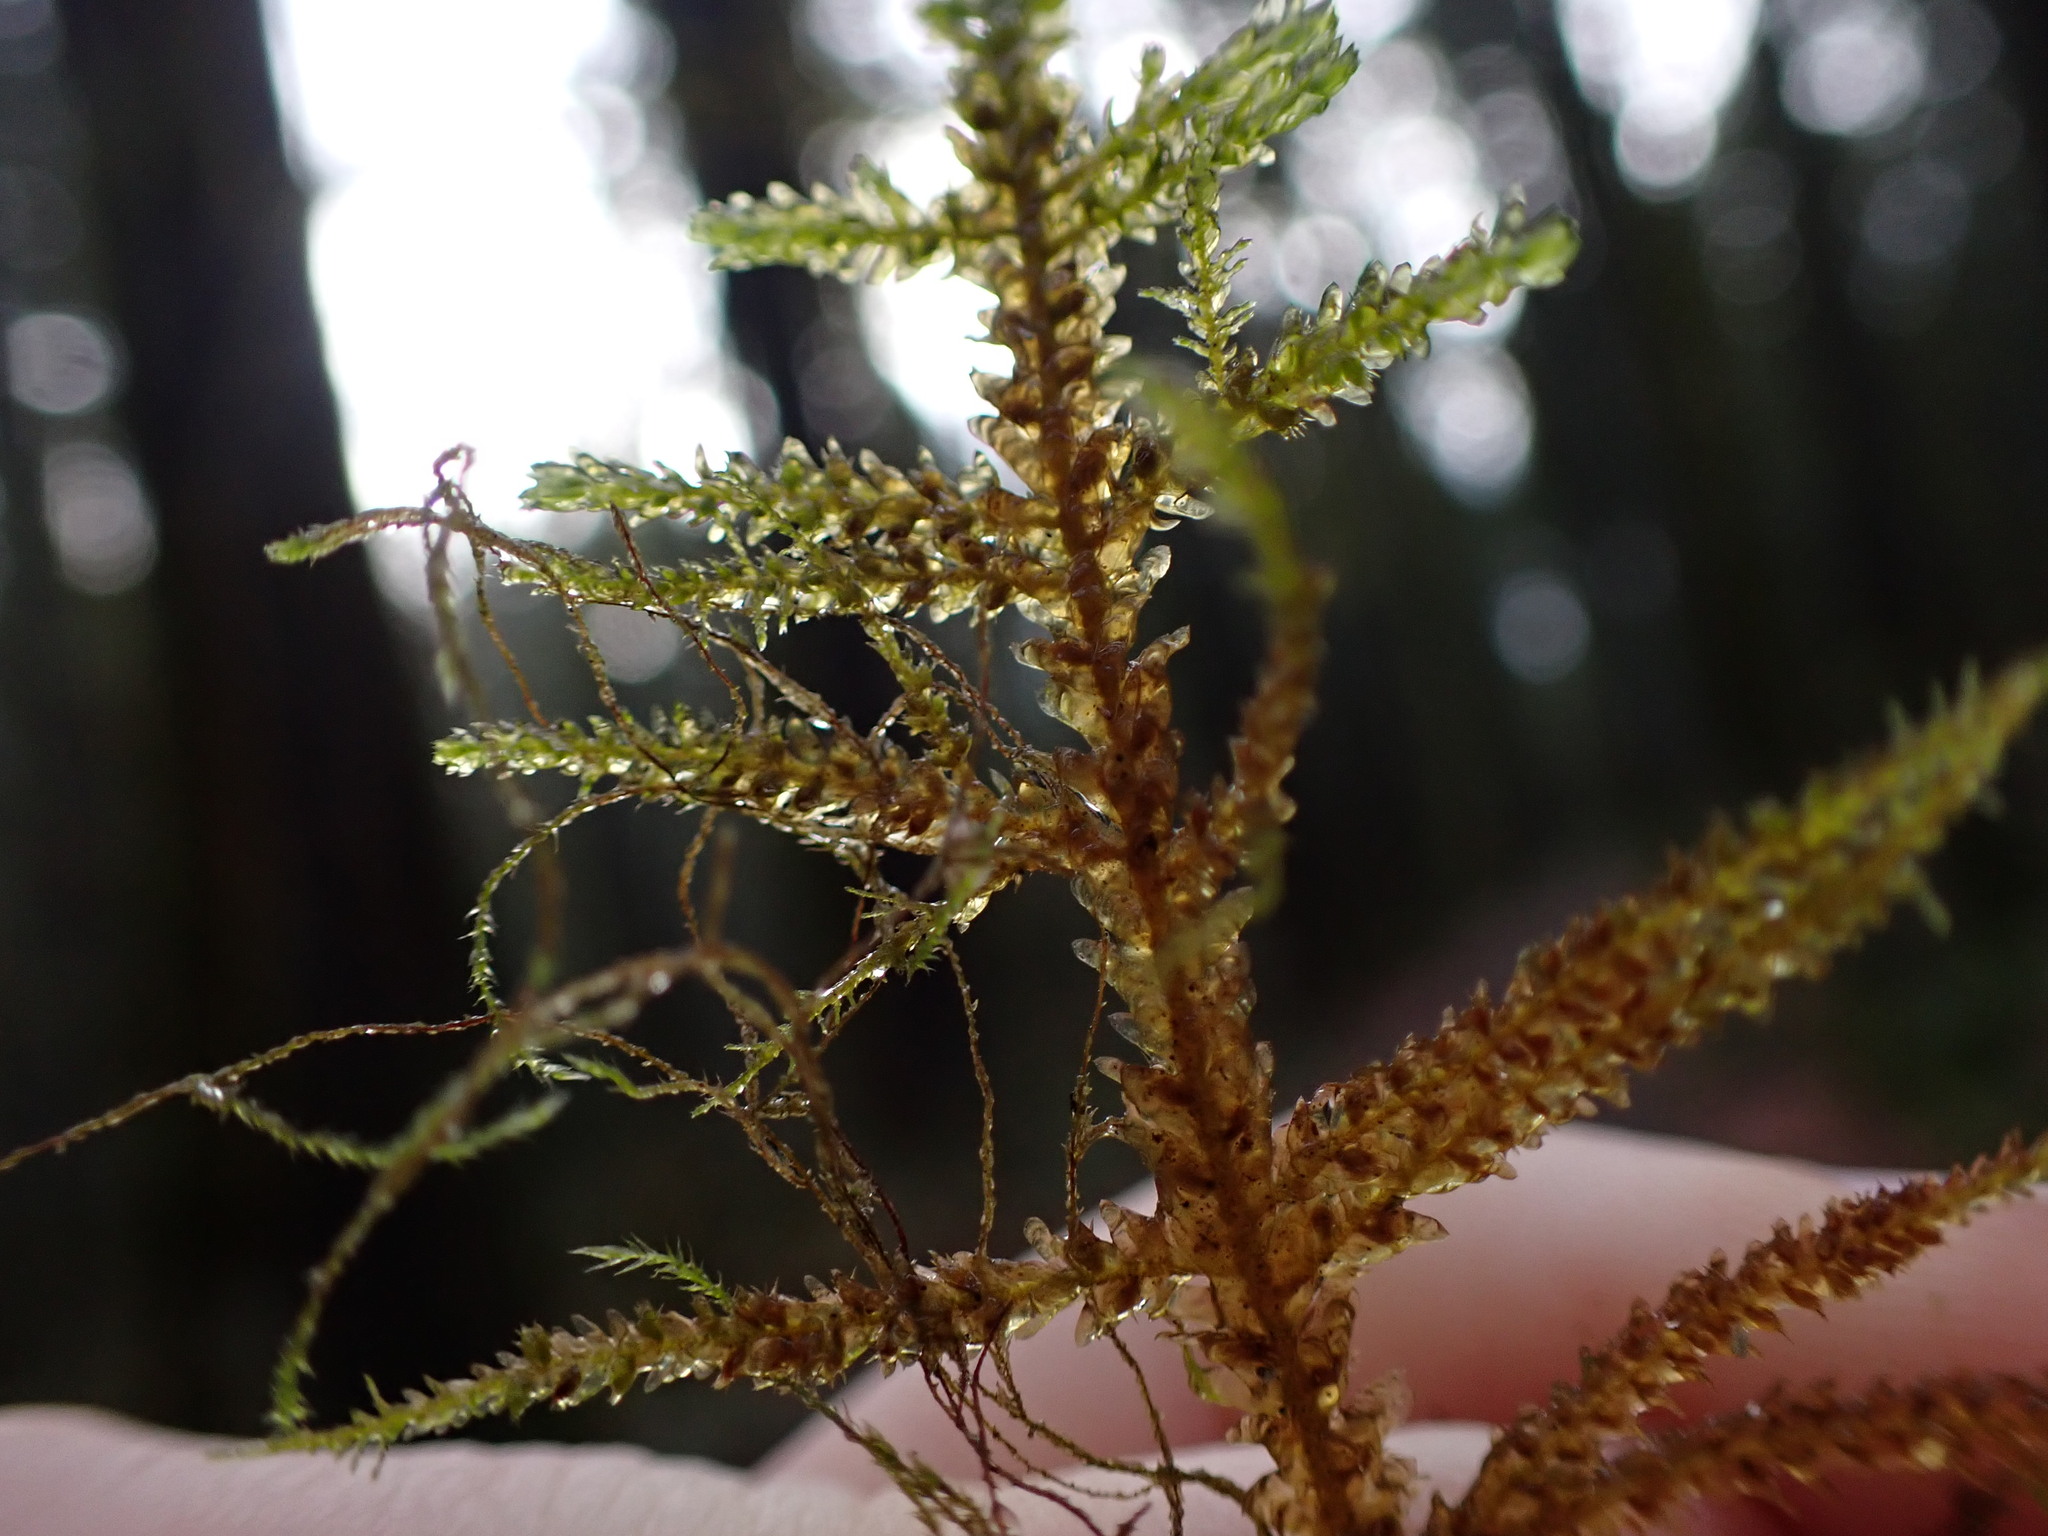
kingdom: Plantae
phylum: Bryophyta
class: Bryopsida
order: Hypnales
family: Neckeraceae
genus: Metaneckera
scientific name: Metaneckera menziesii
